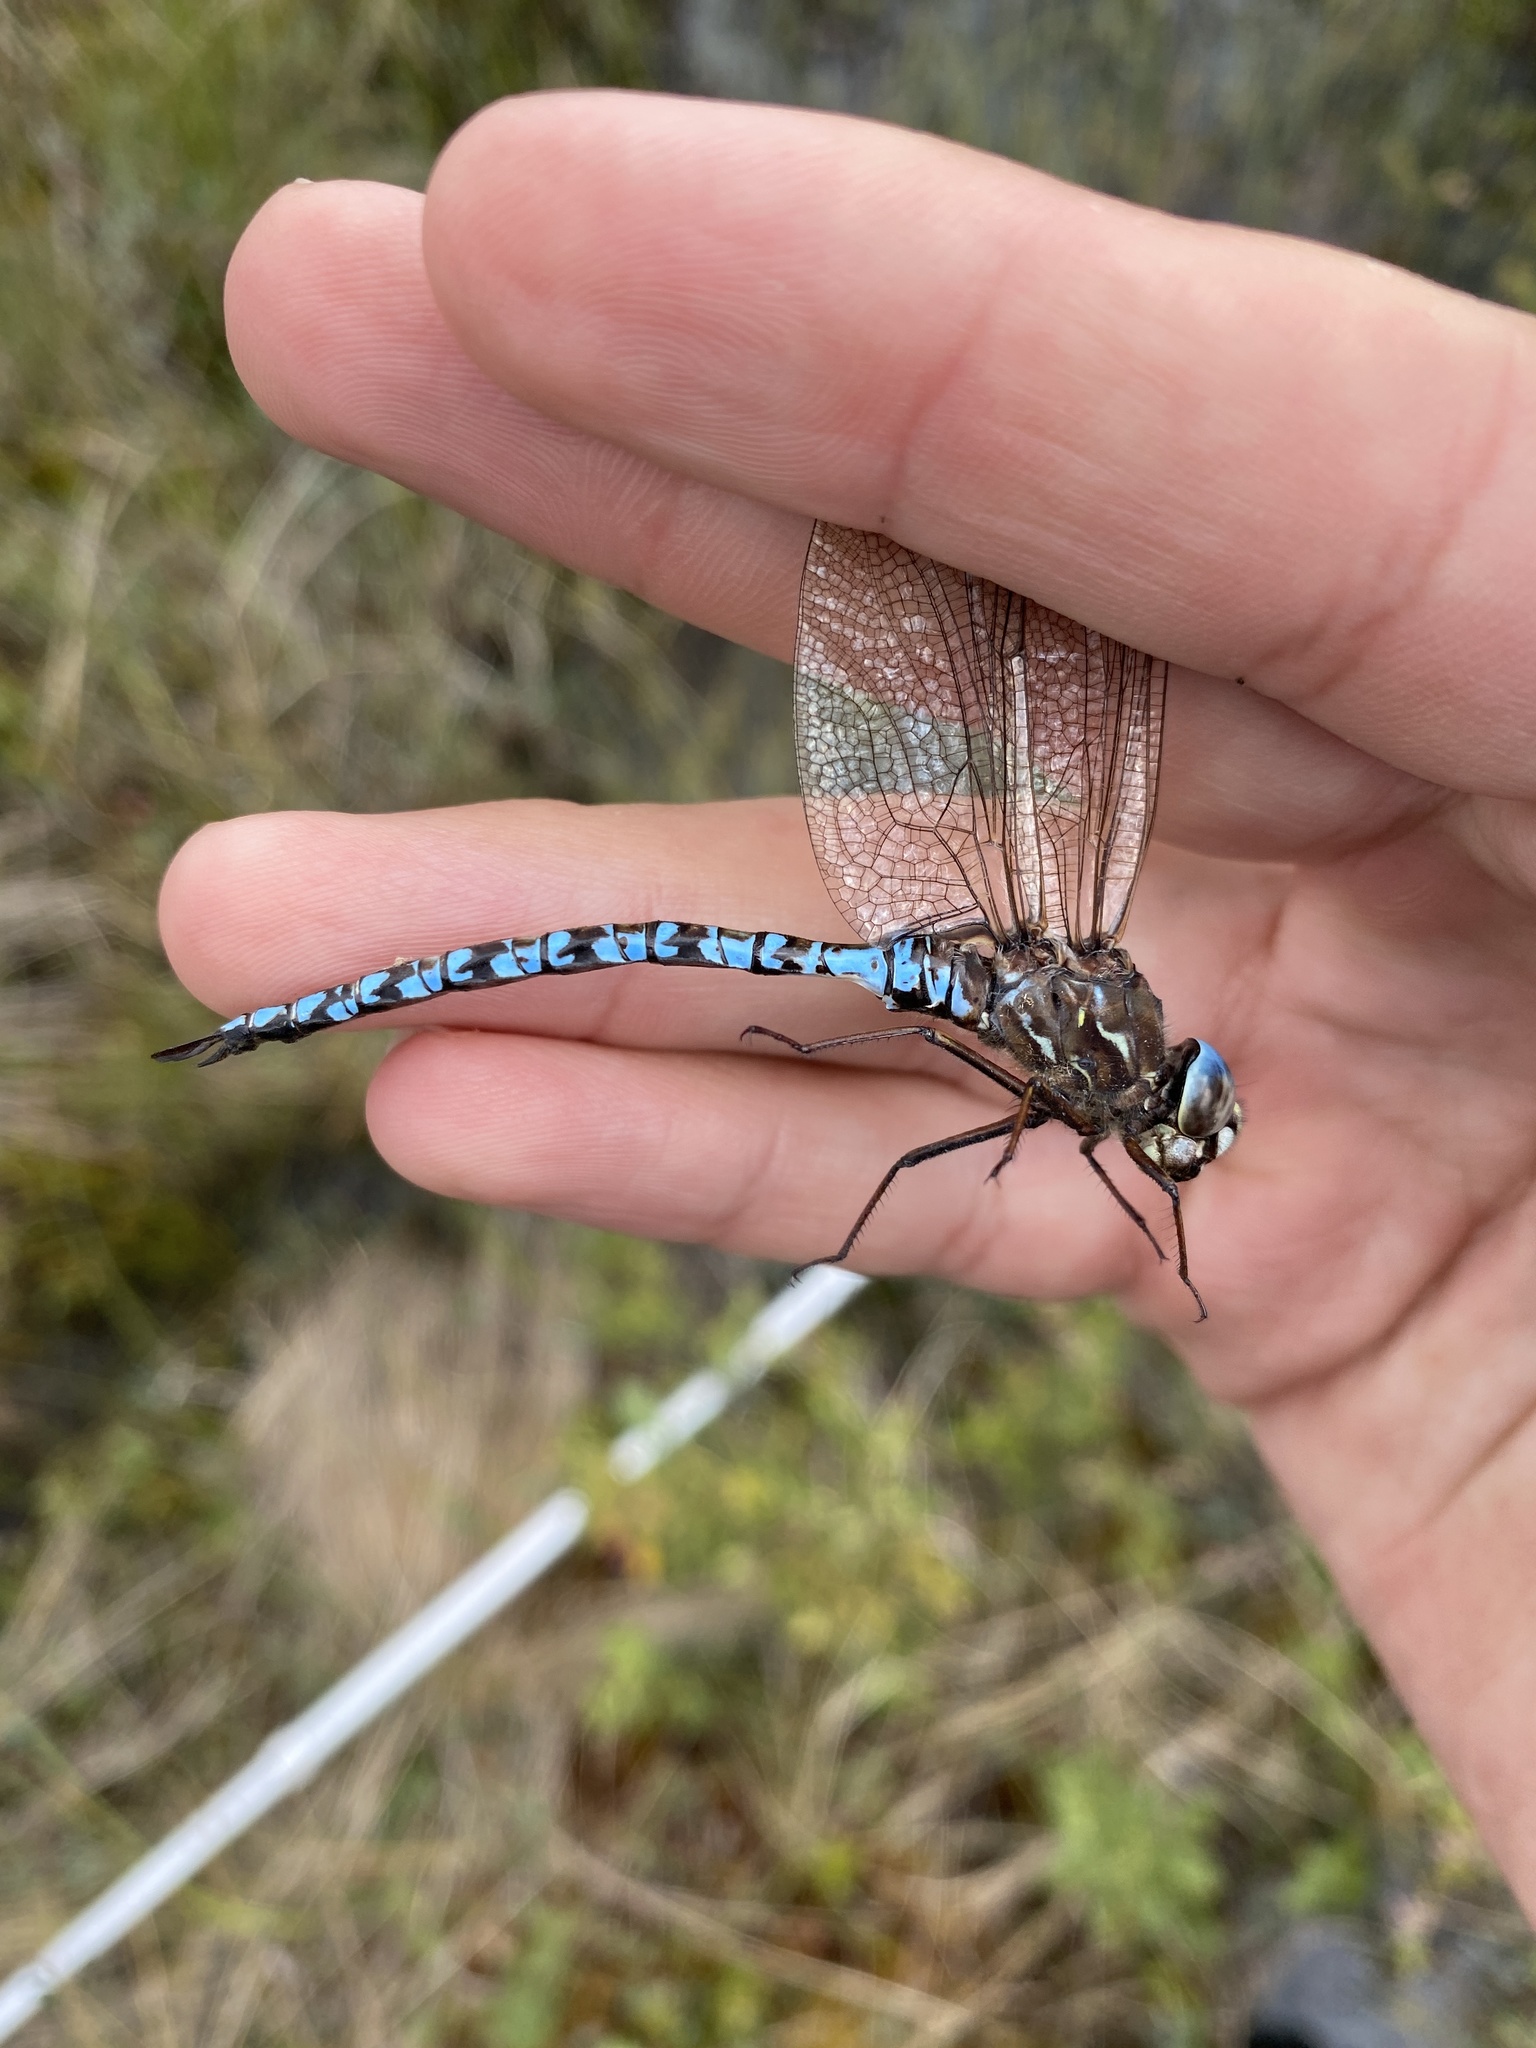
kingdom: Animalia
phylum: Arthropoda
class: Insecta
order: Odonata
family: Aeshnidae
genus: Aeshna
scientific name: Aeshna sitchensis
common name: Zigzag darner
